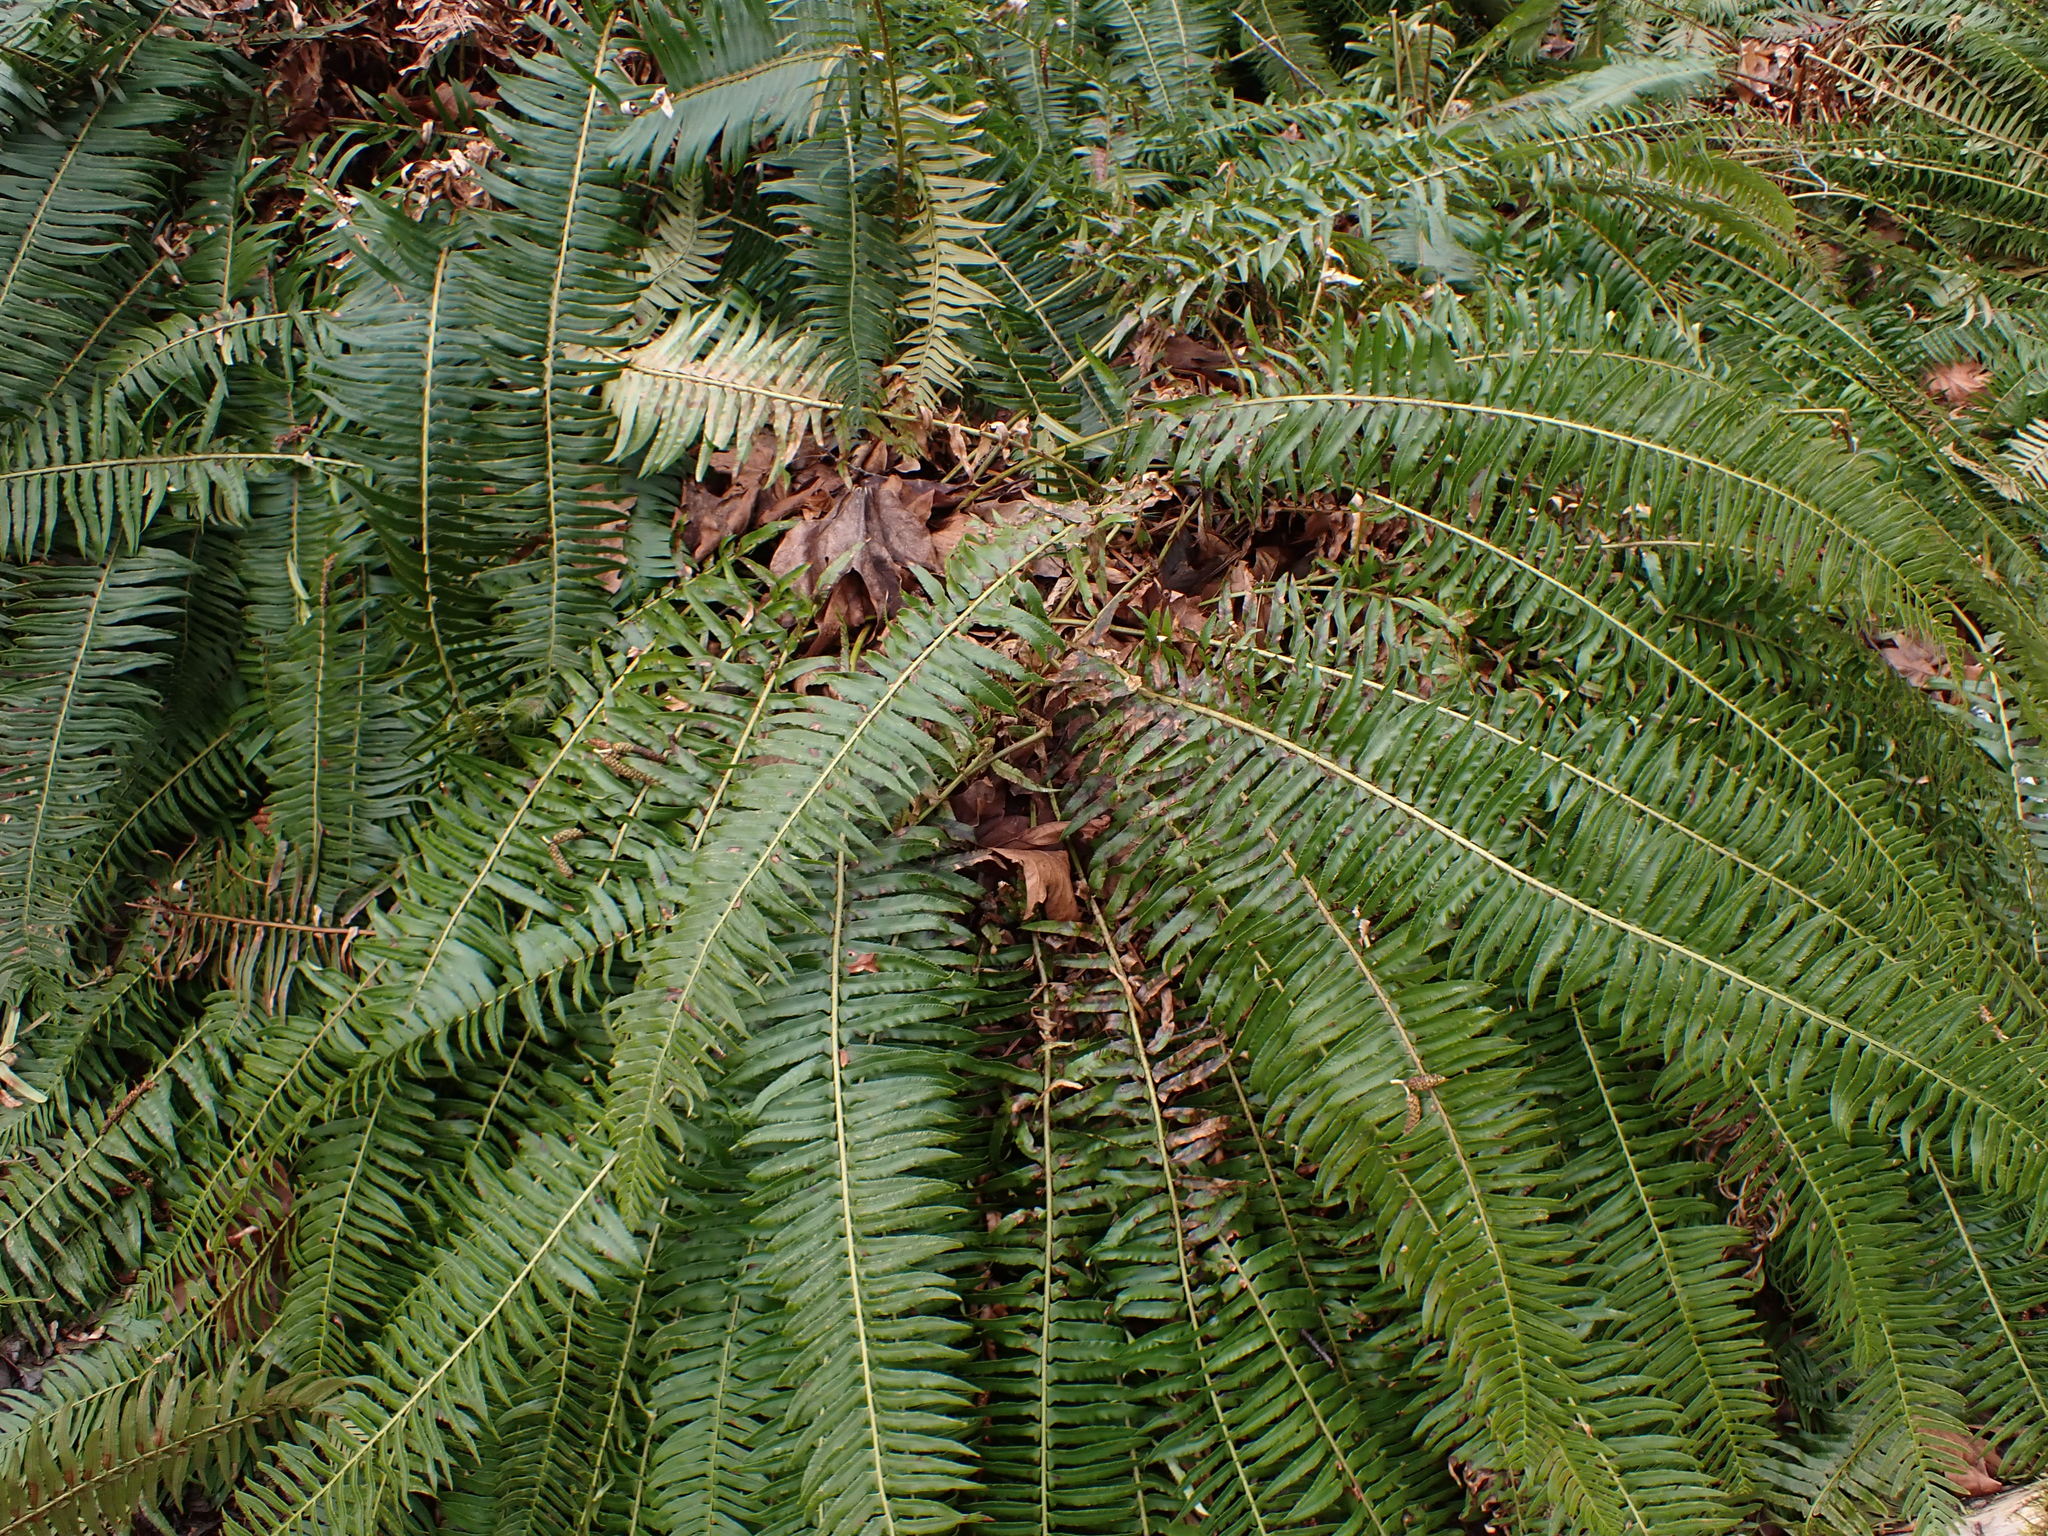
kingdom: Plantae
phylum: Tracheophyta
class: Polypodiopsida
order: Polypodiales
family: Dryopteridaceae
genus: Polystichum
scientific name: Polystichum munitum
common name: Western sword-fern
